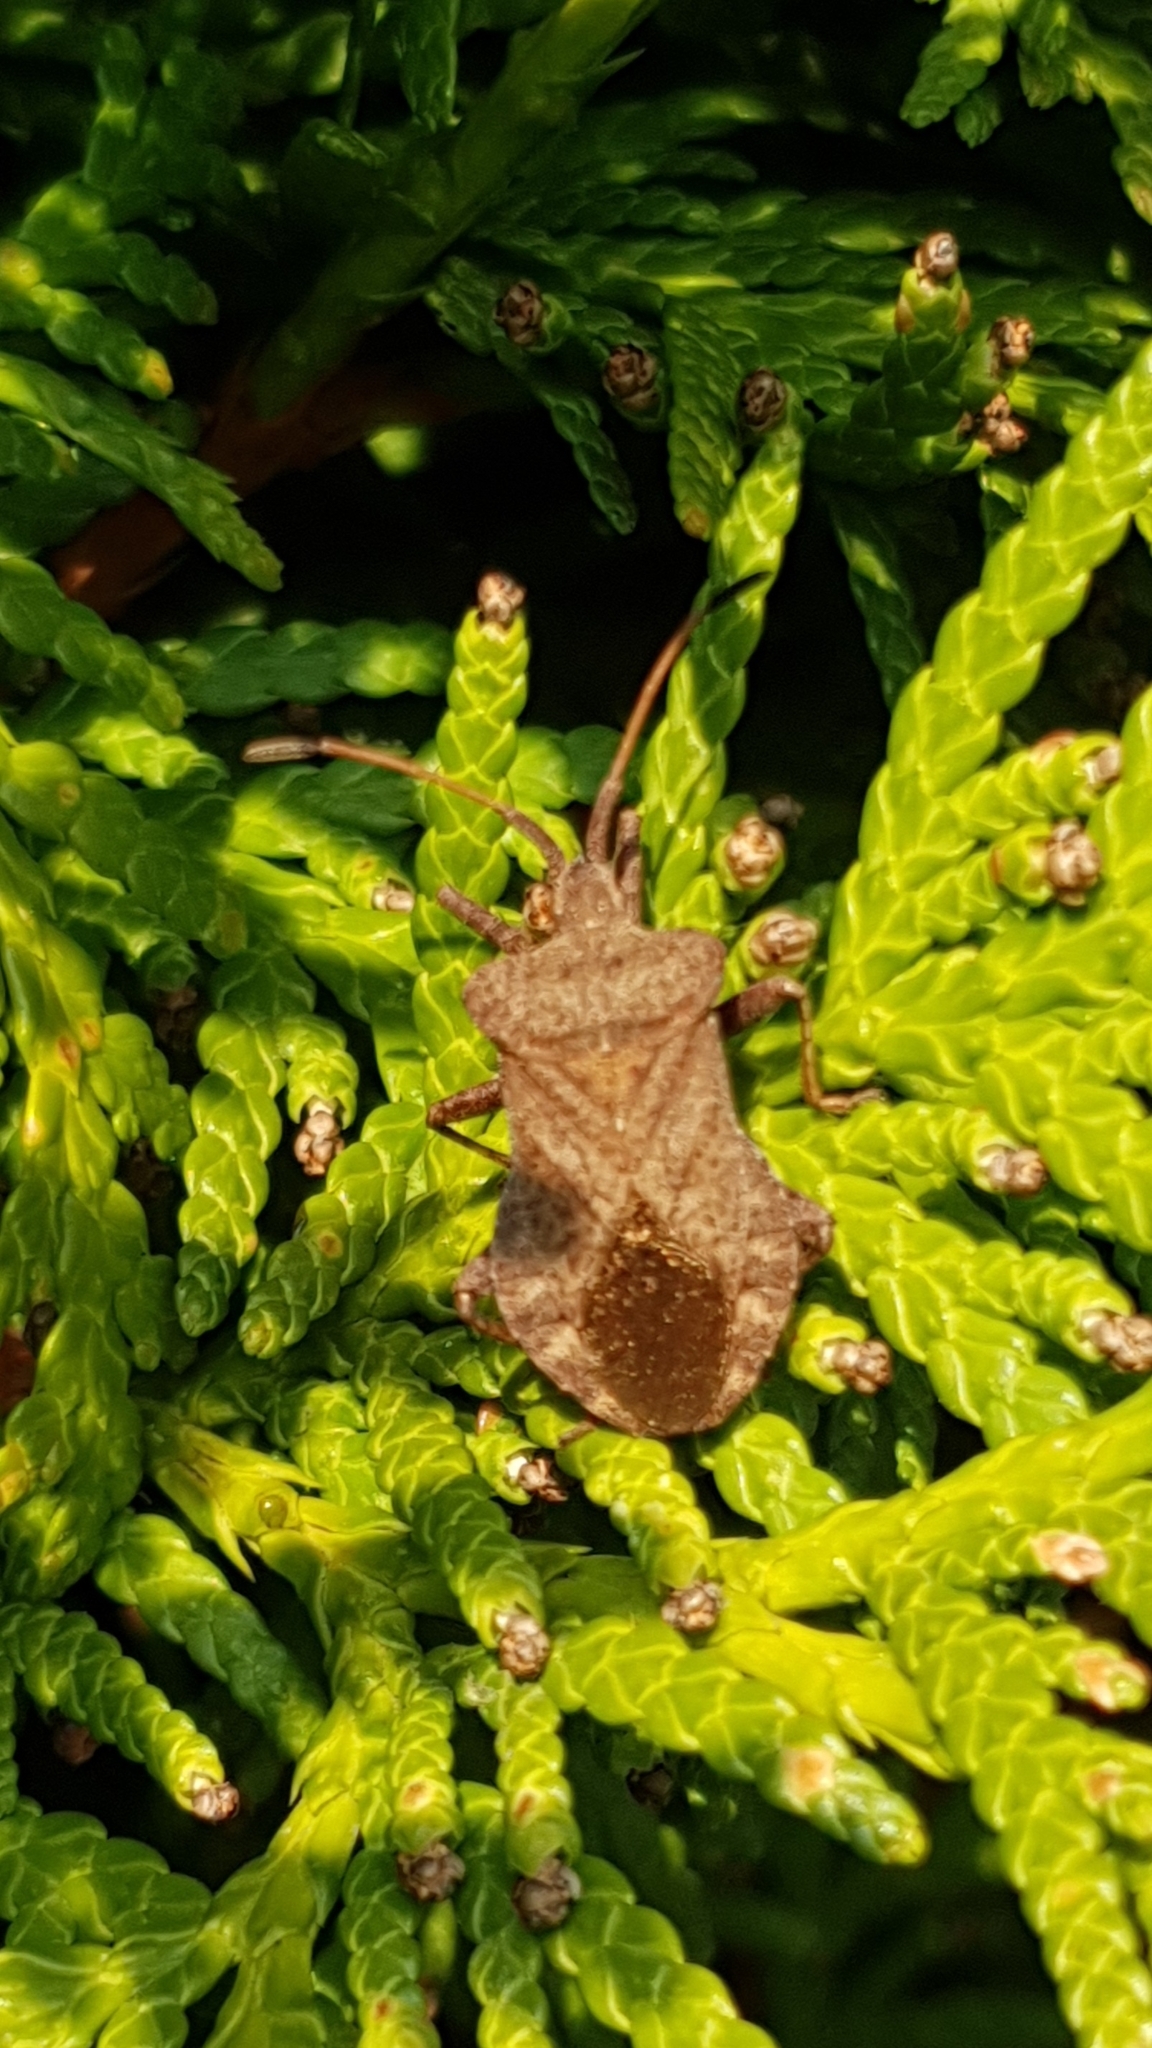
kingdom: Animalia
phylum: Arthropoda
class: Insecta
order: Hemiptera
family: Coreidae
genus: Coreus
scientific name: Coreus marginatus
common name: Dock bug
